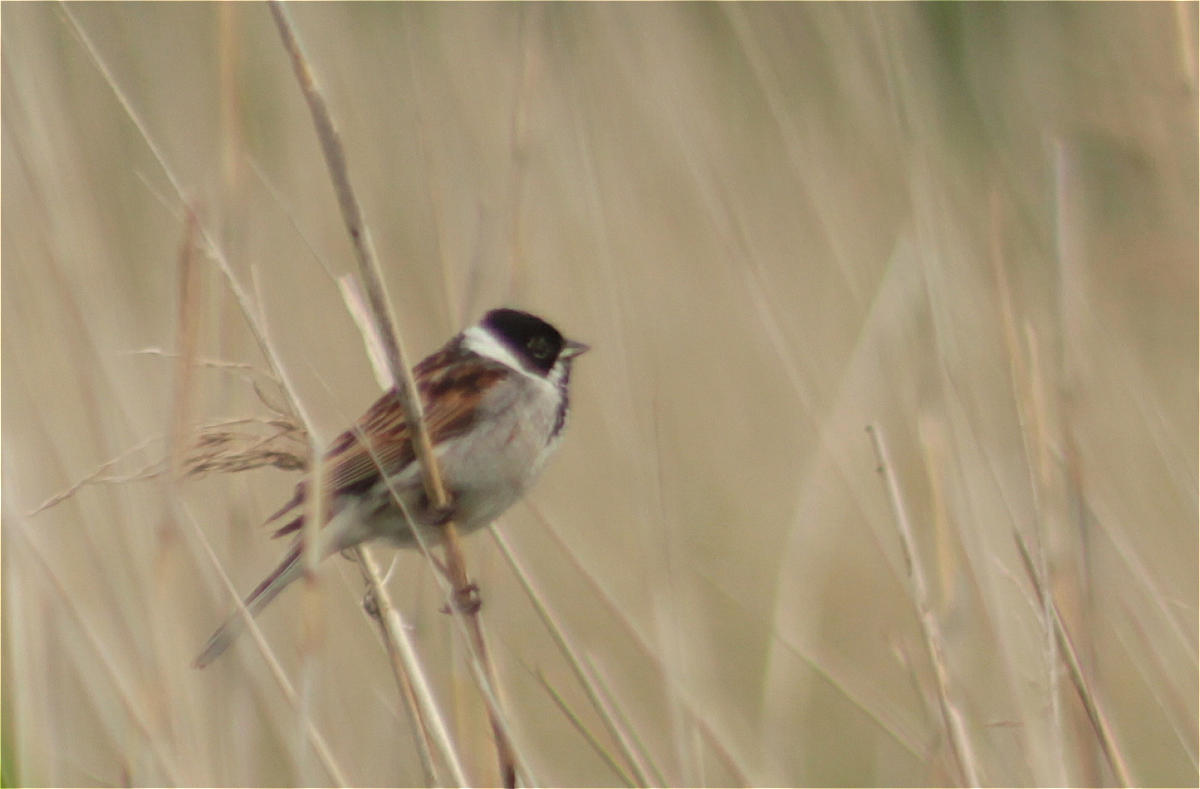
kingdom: Animalia
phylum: Chordata
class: Aves
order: Passeriformes
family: Emberizidae
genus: Emberiza
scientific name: Emberiza schoeniclus
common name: Reed bunting
